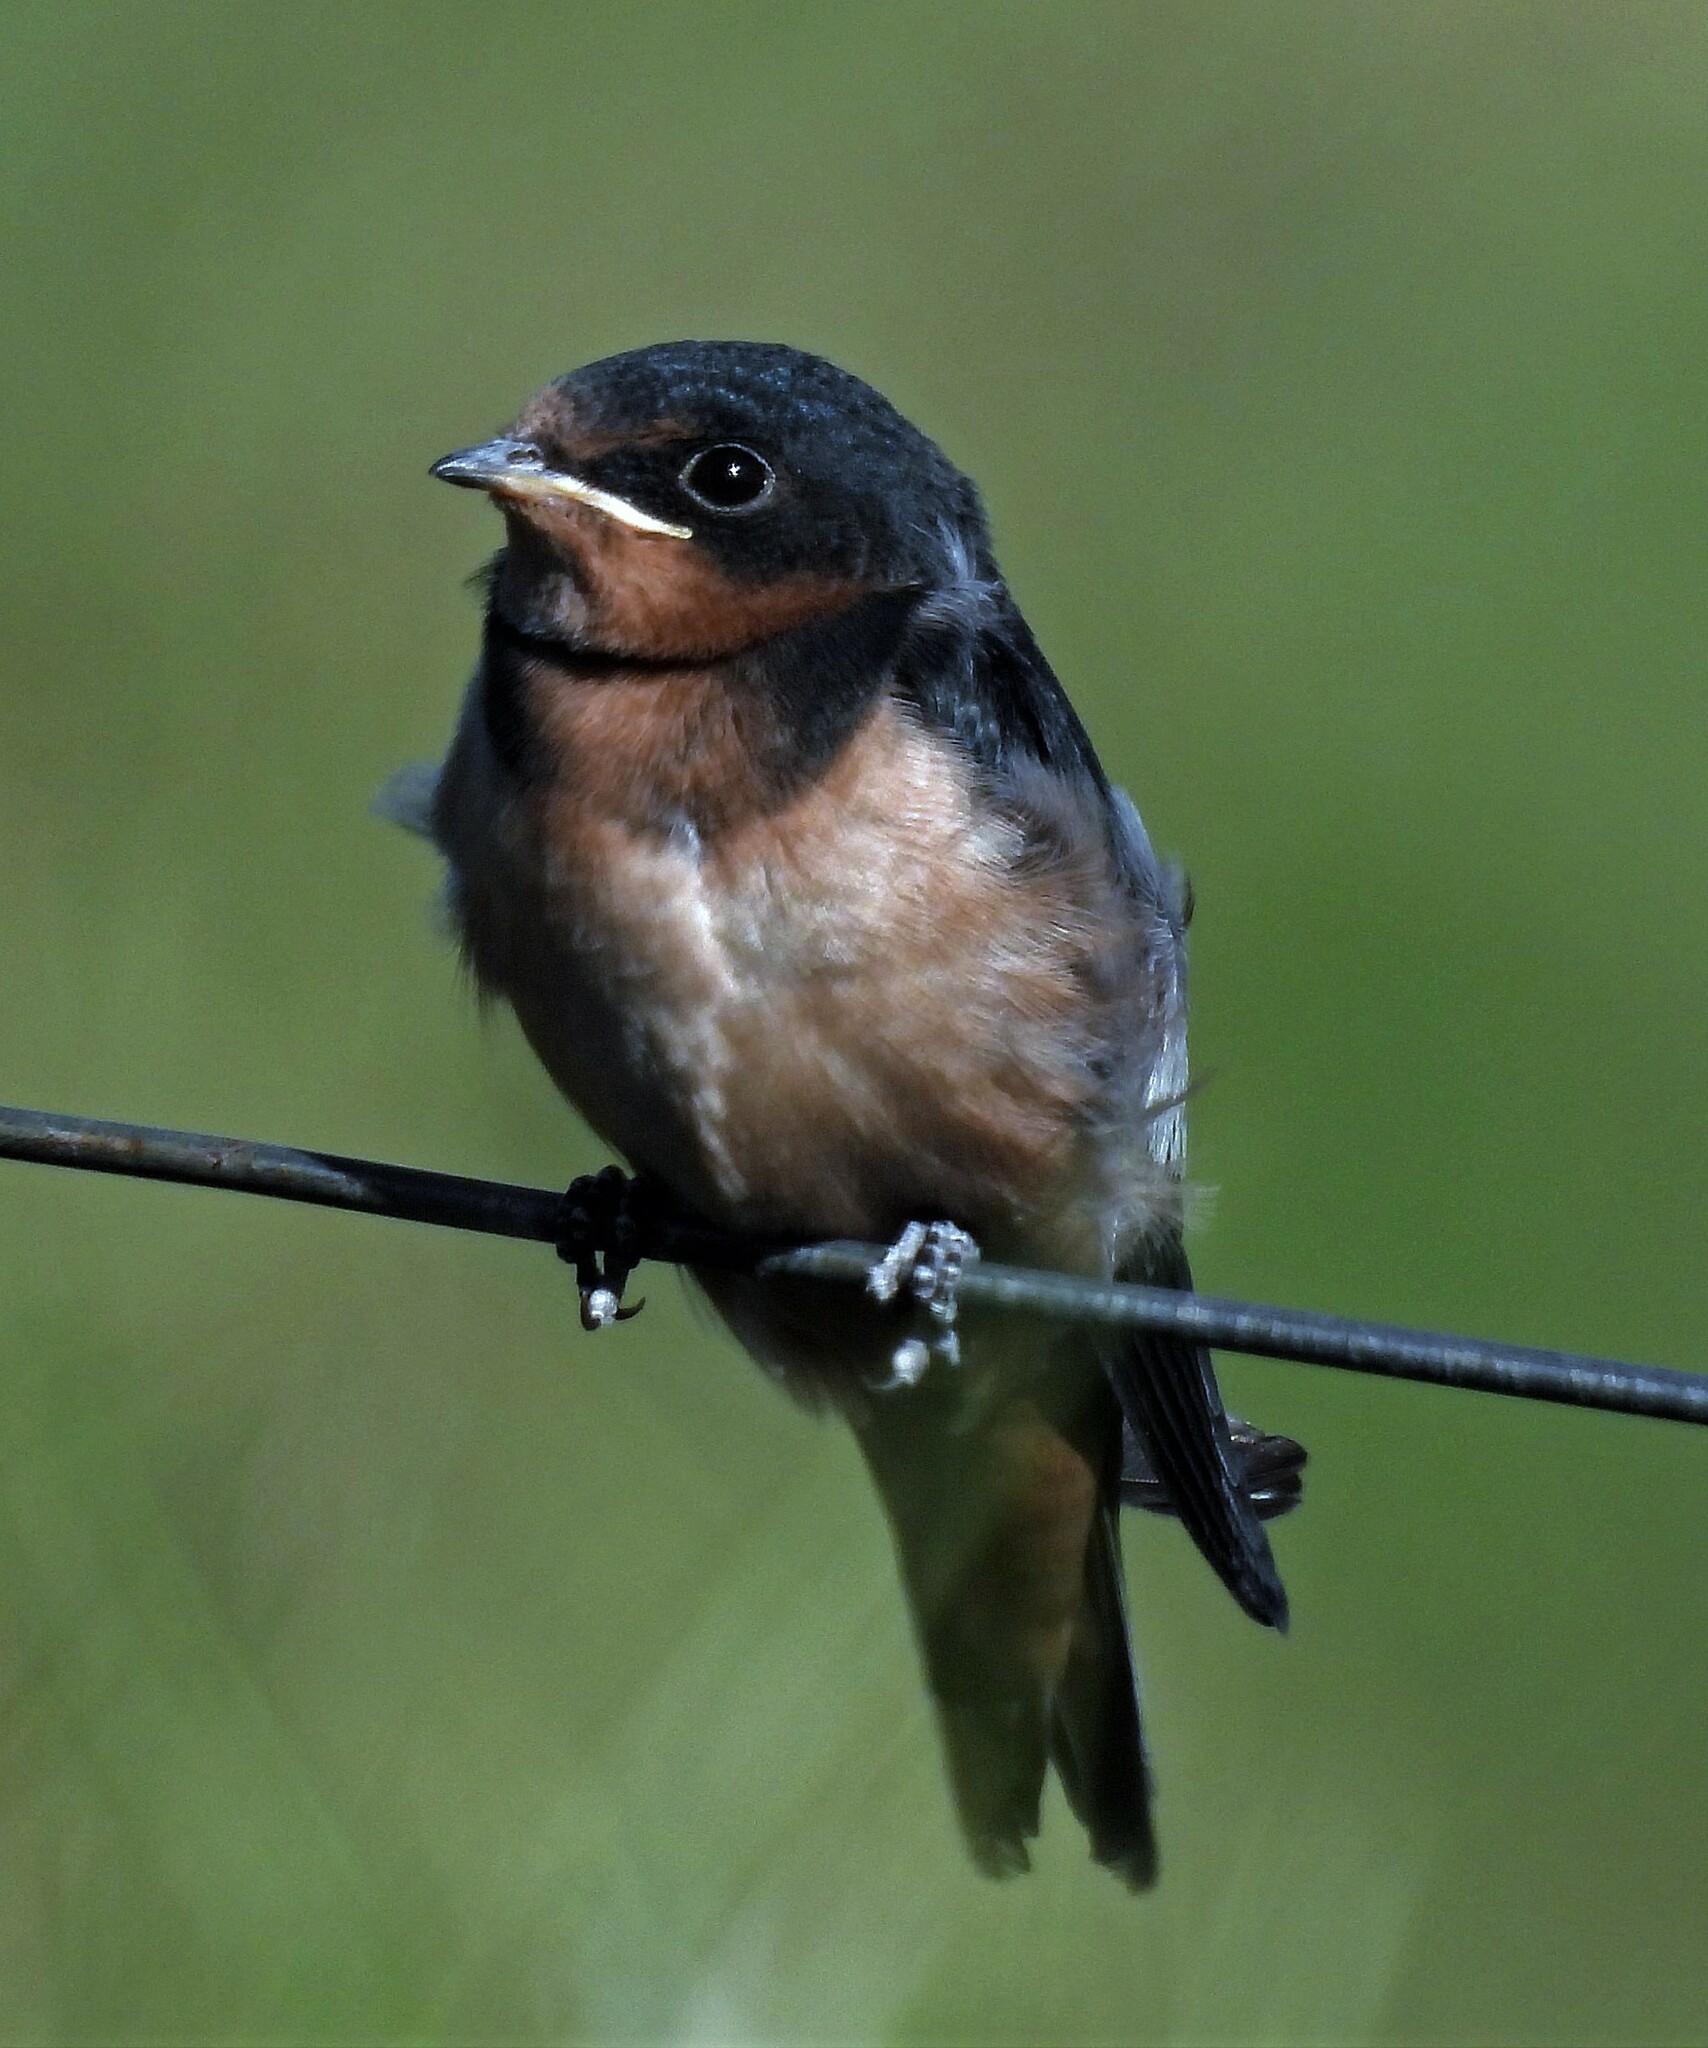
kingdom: Animalia
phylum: Chordata
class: Aves
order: Passeriformes
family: Hirundinidae
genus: Hirundo
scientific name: Hirundo rustica
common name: Barn swallow
